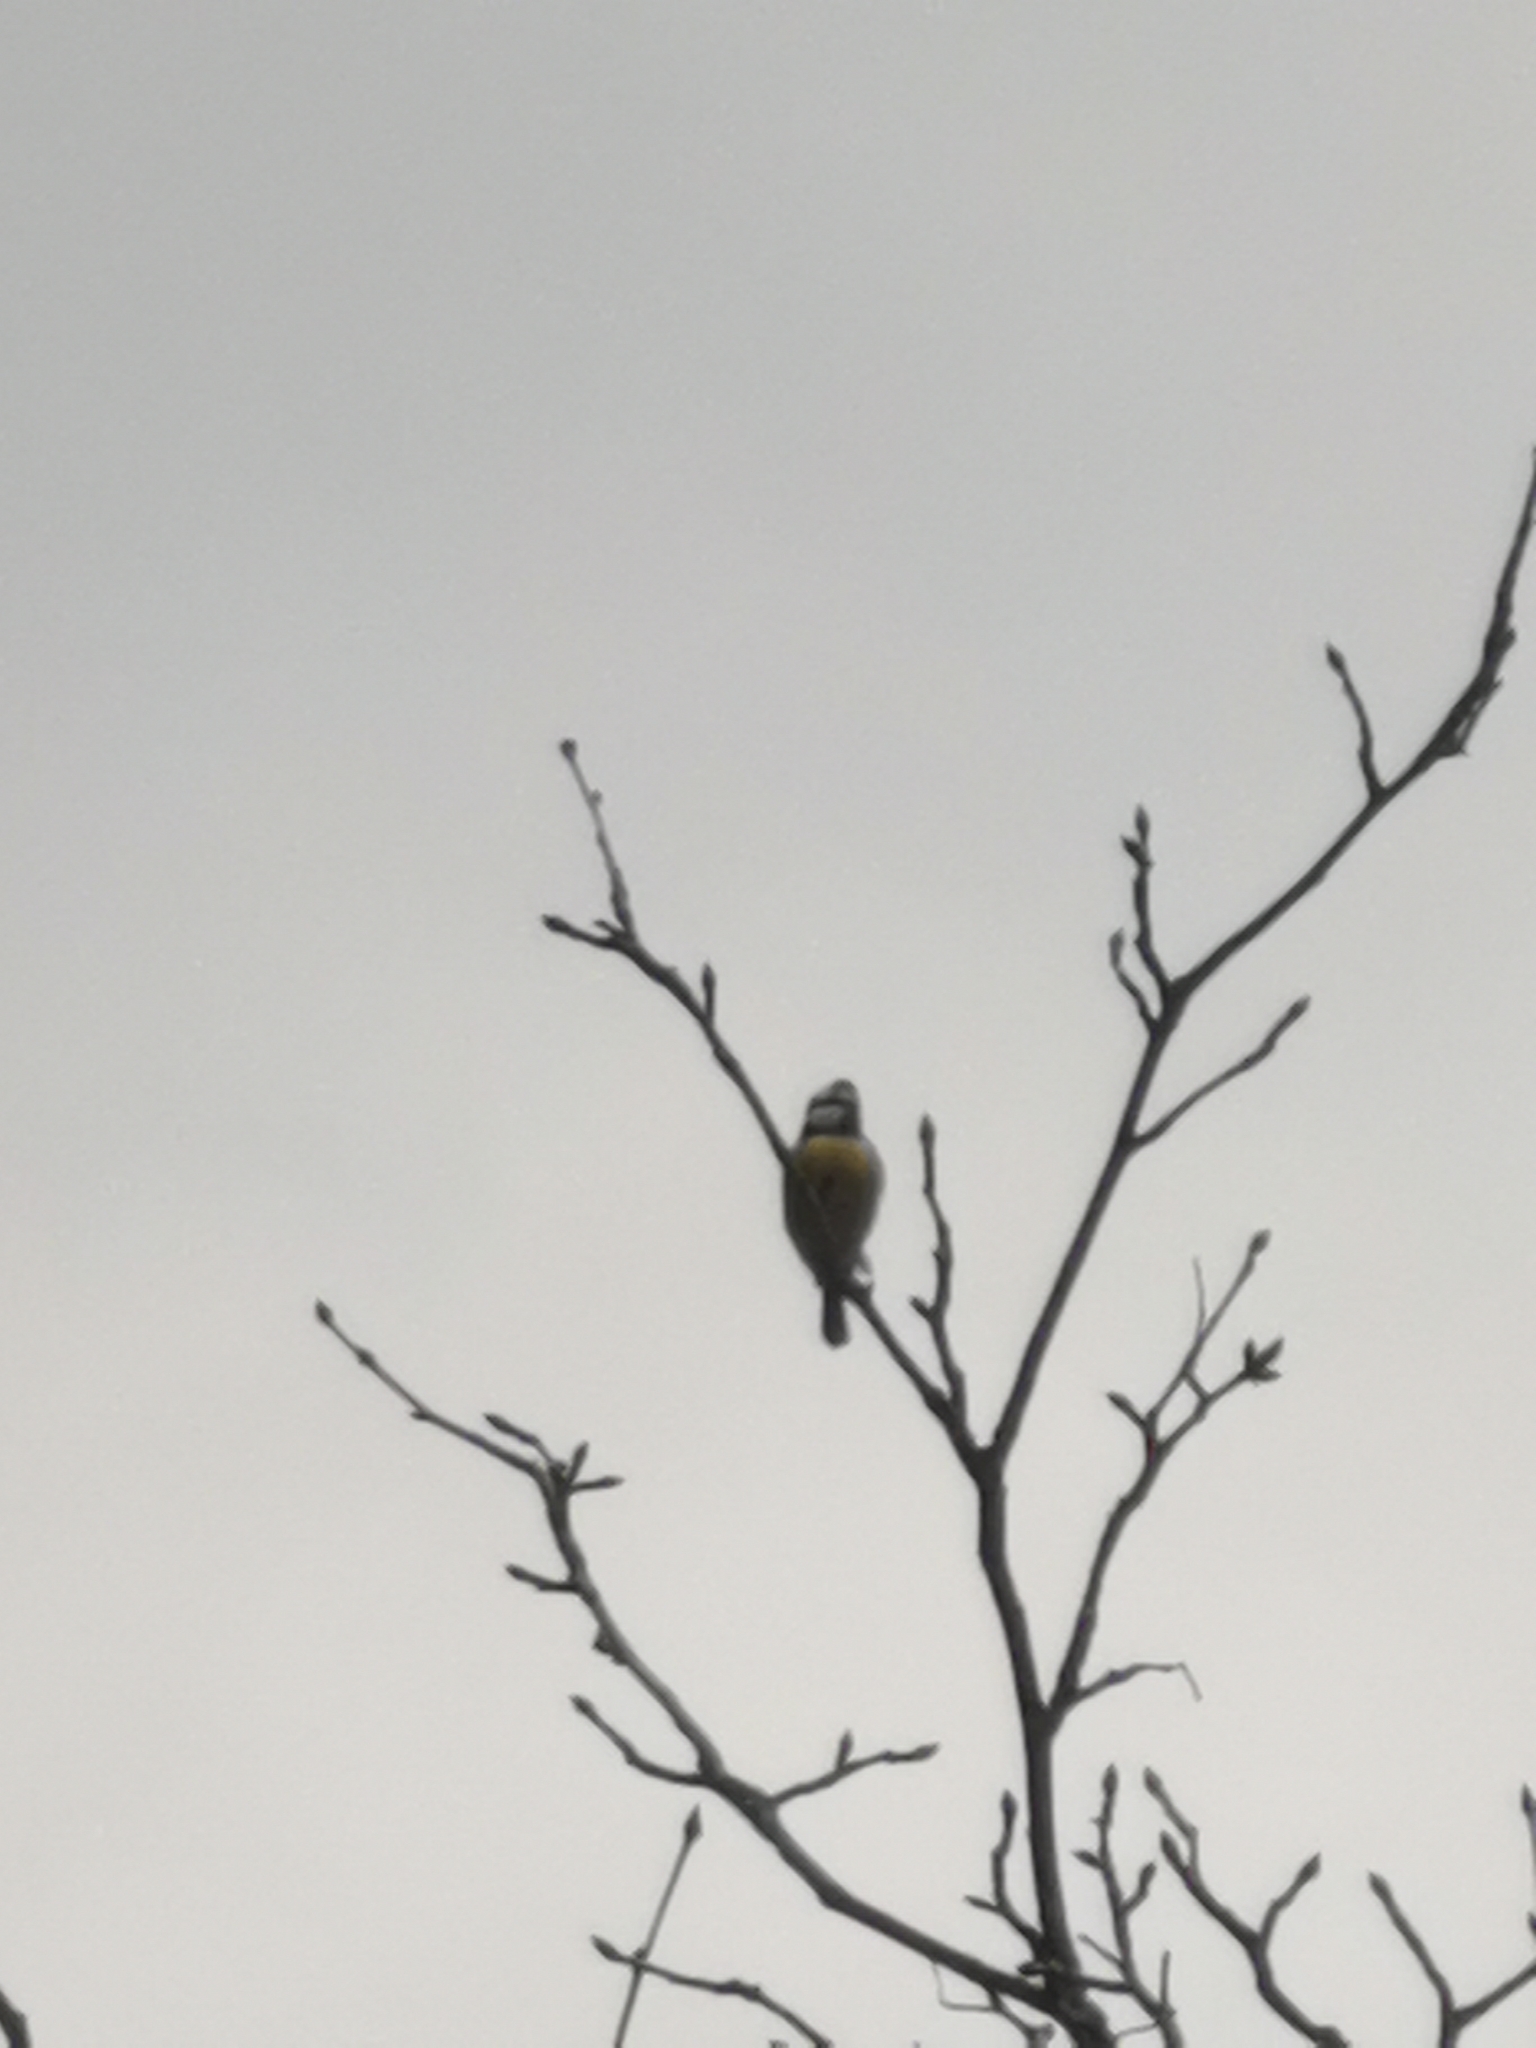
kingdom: Animalia
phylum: Chordata
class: Aves
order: Passeriformes
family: Paridae
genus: Cyanistes
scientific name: Cyanistes caeruleus
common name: Eurasian blue tit
